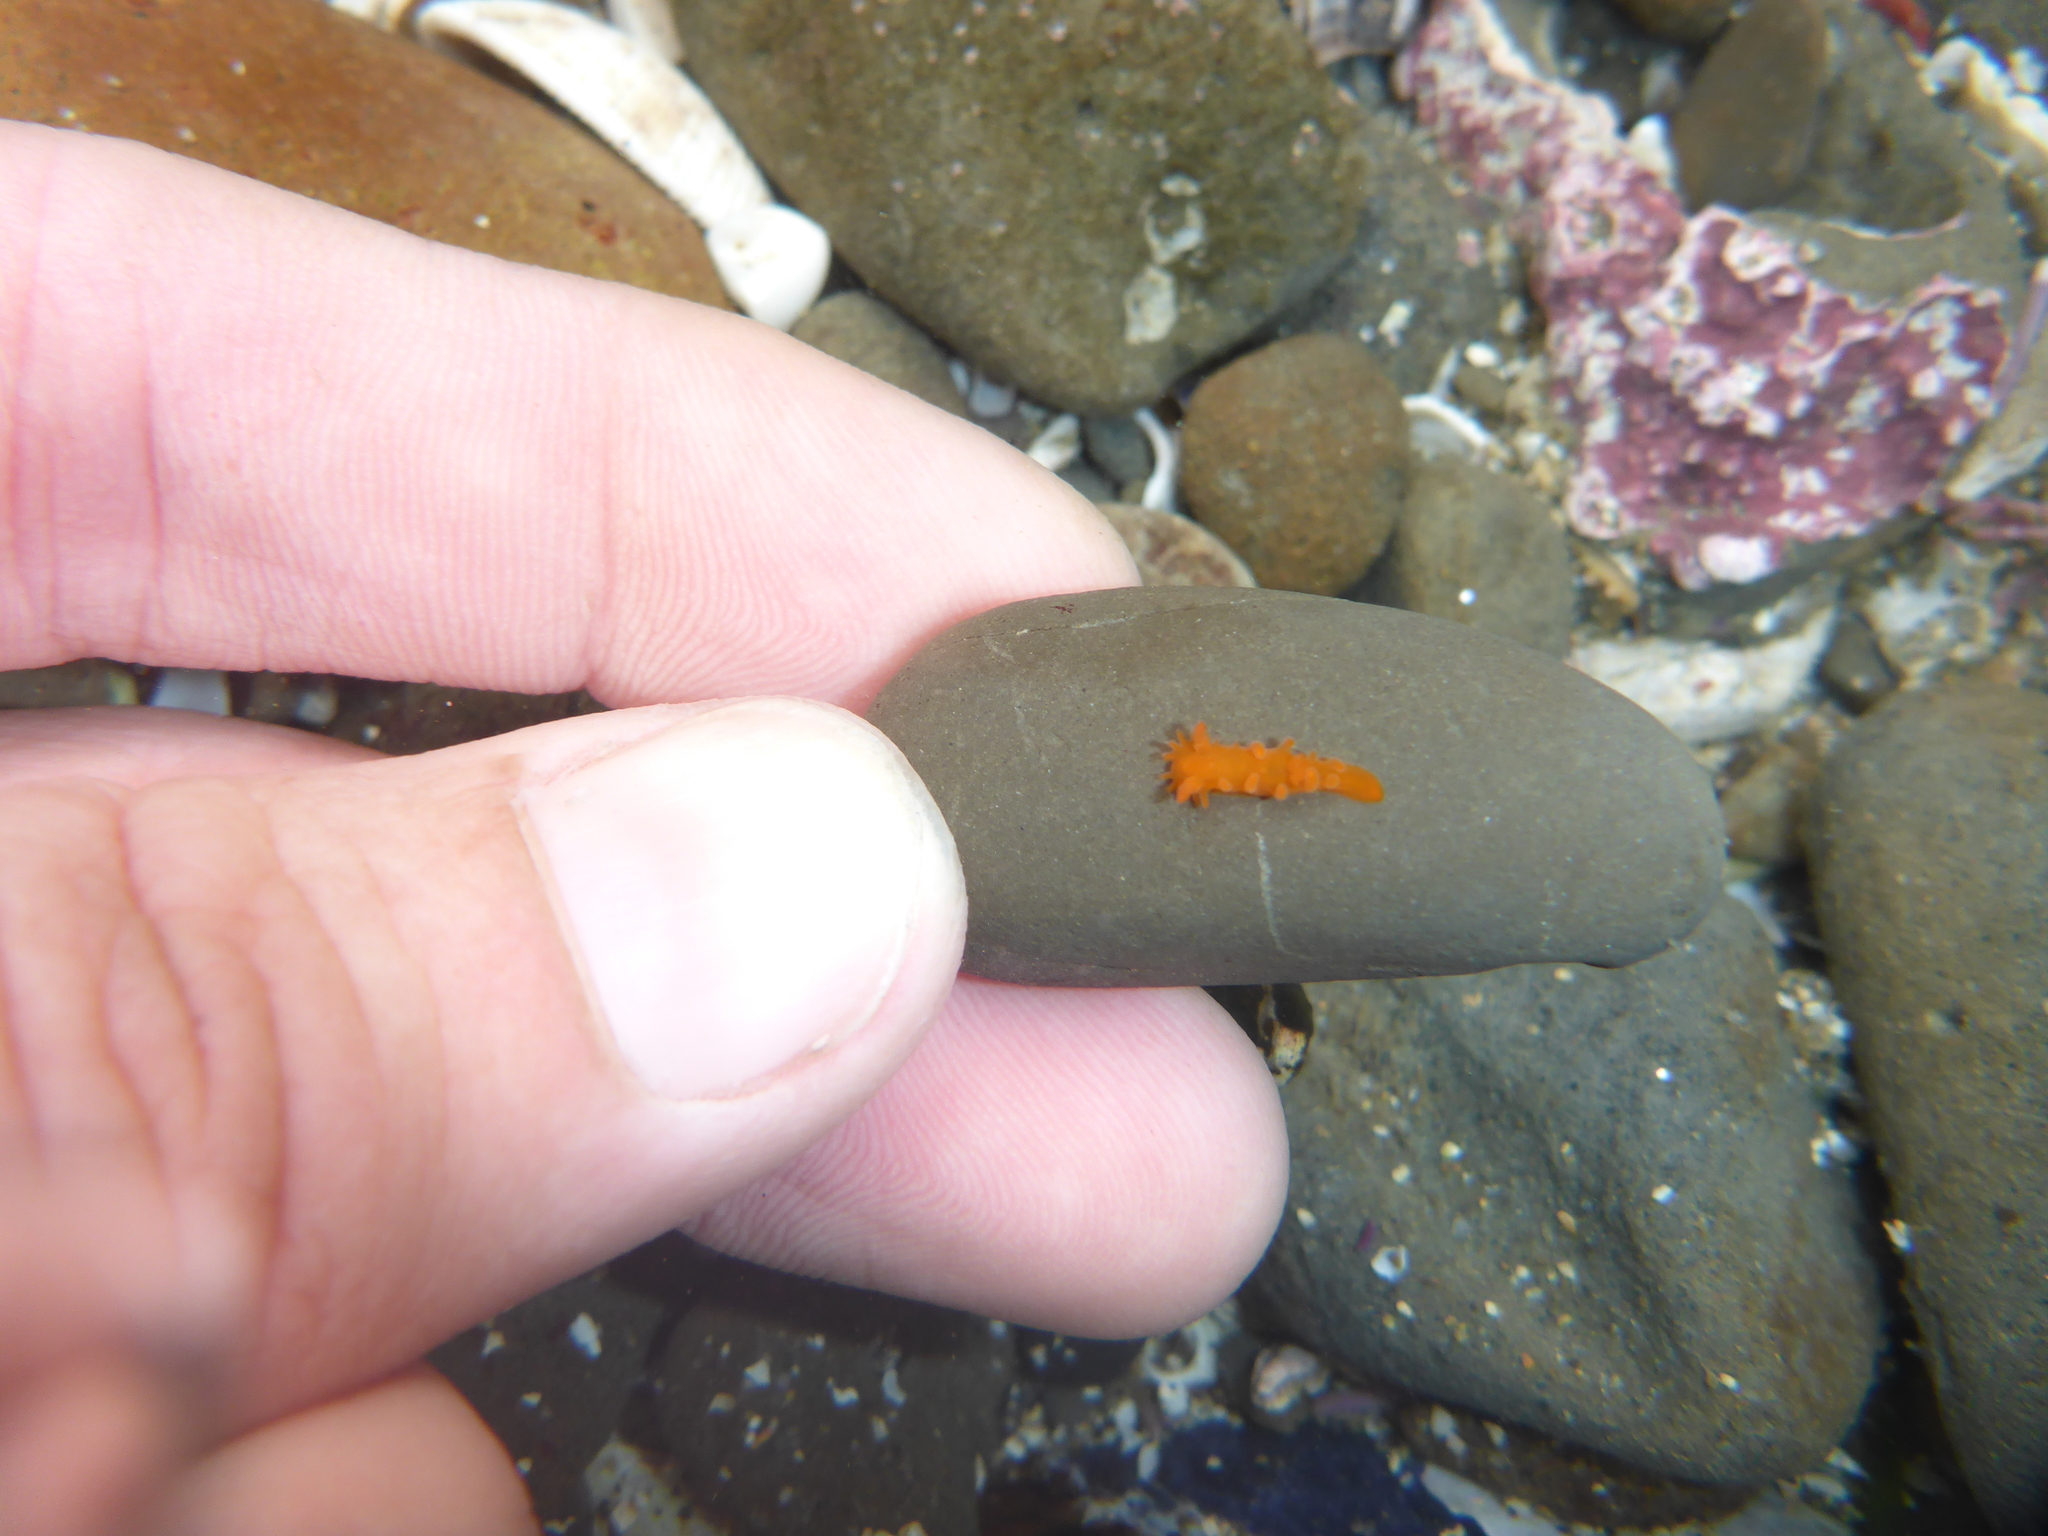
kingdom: Animalia
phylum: Mollusca
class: Gastropoda
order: Nudibranchia
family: Polyceridae
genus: Triopha
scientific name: Triopha maculata
